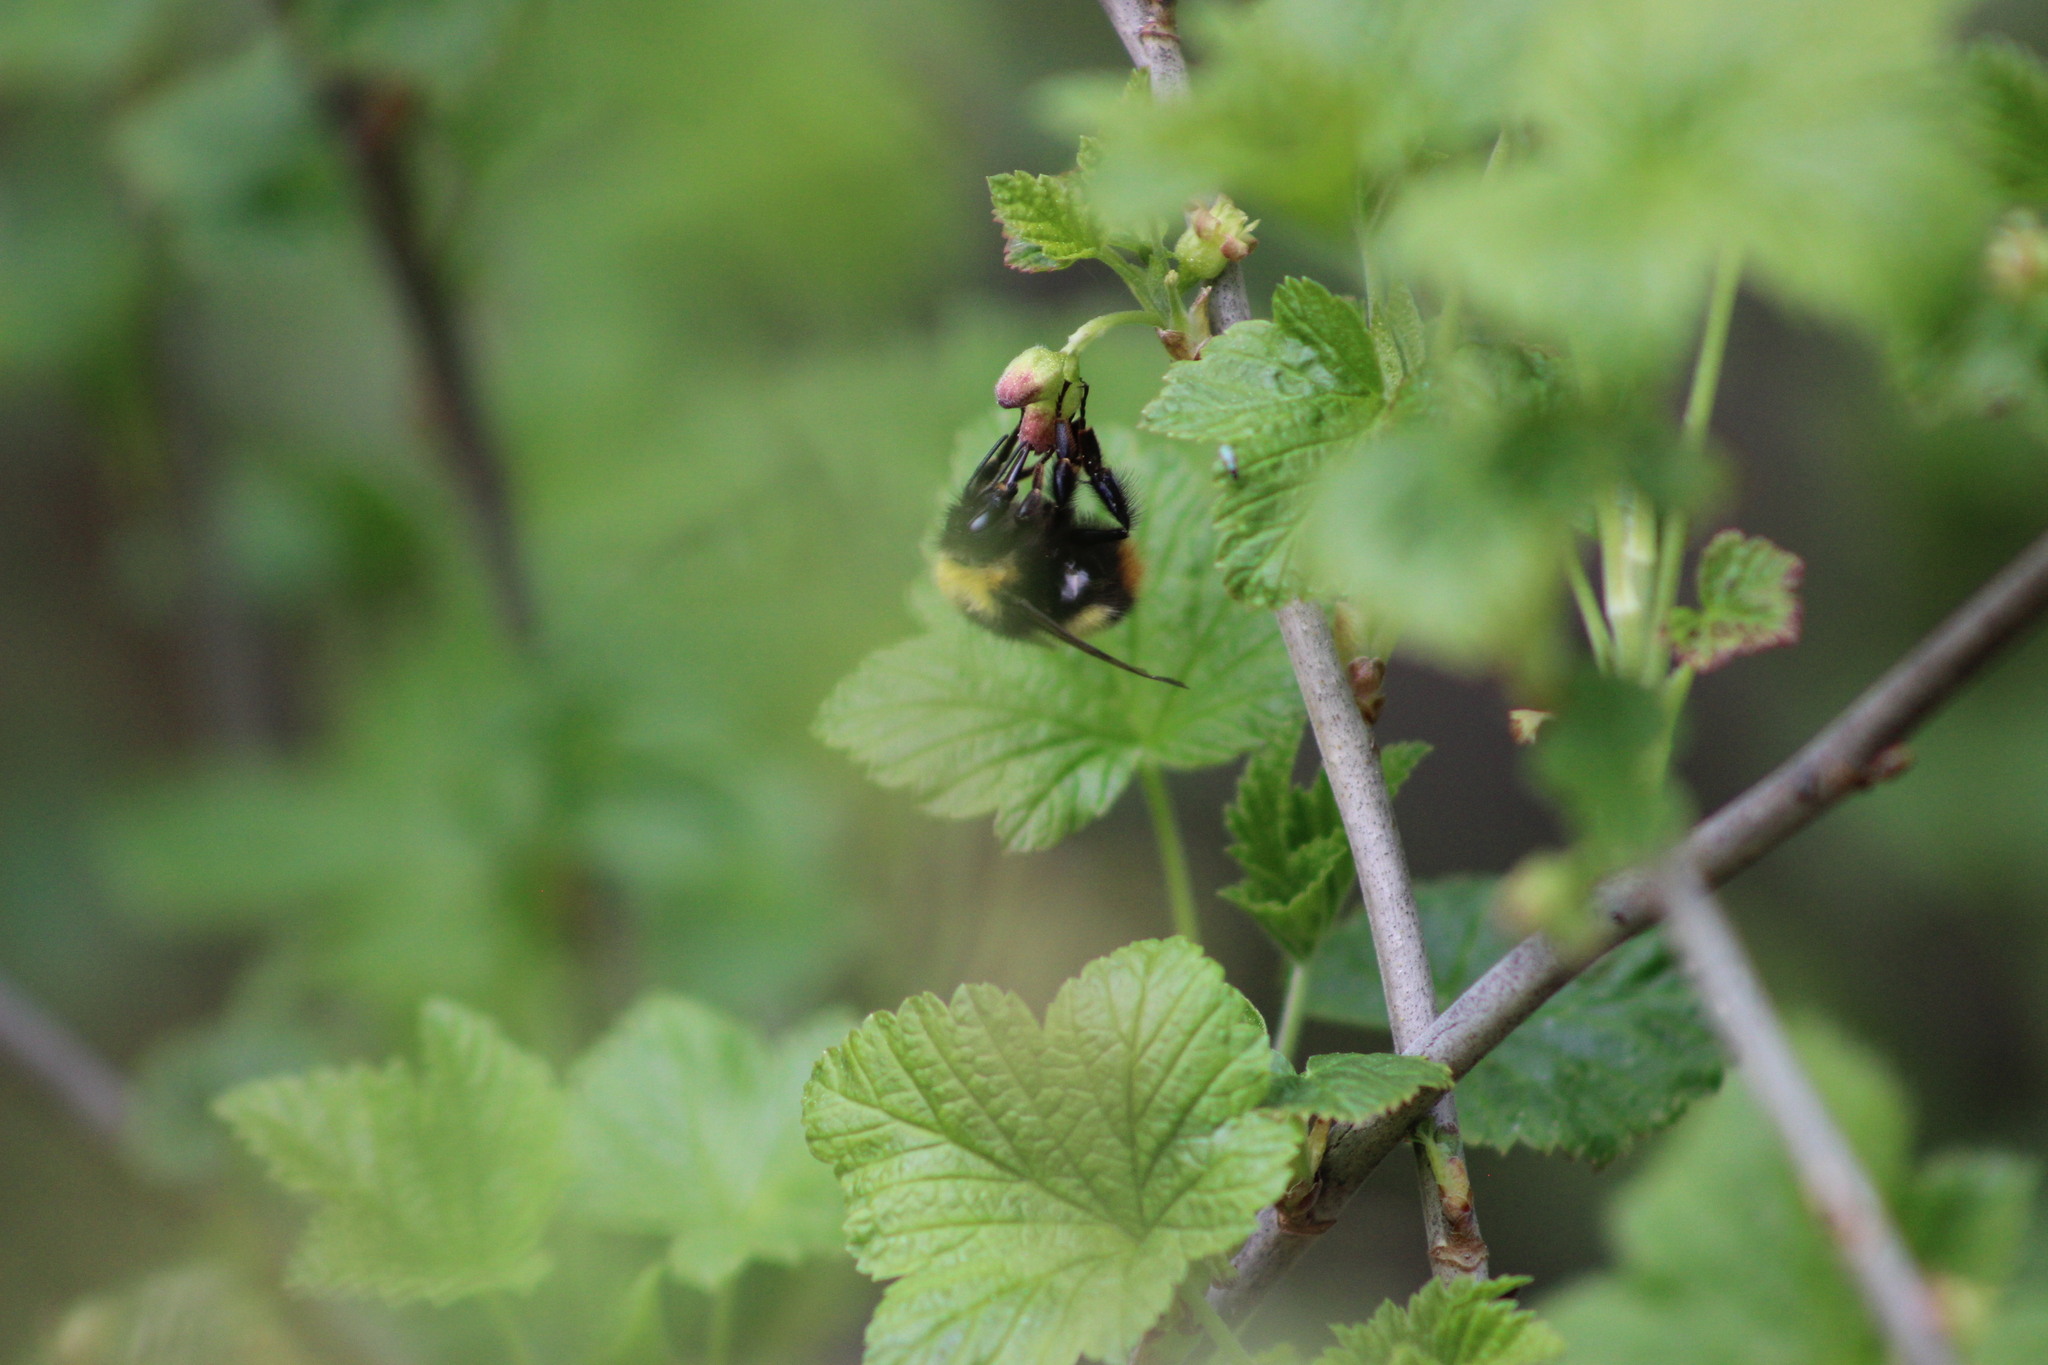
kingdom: Animalia
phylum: Arthropoda
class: Insecta
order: Hymenoptera
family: Apidae
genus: Bombus
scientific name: Bombus pratorum
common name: Early humble-bee
